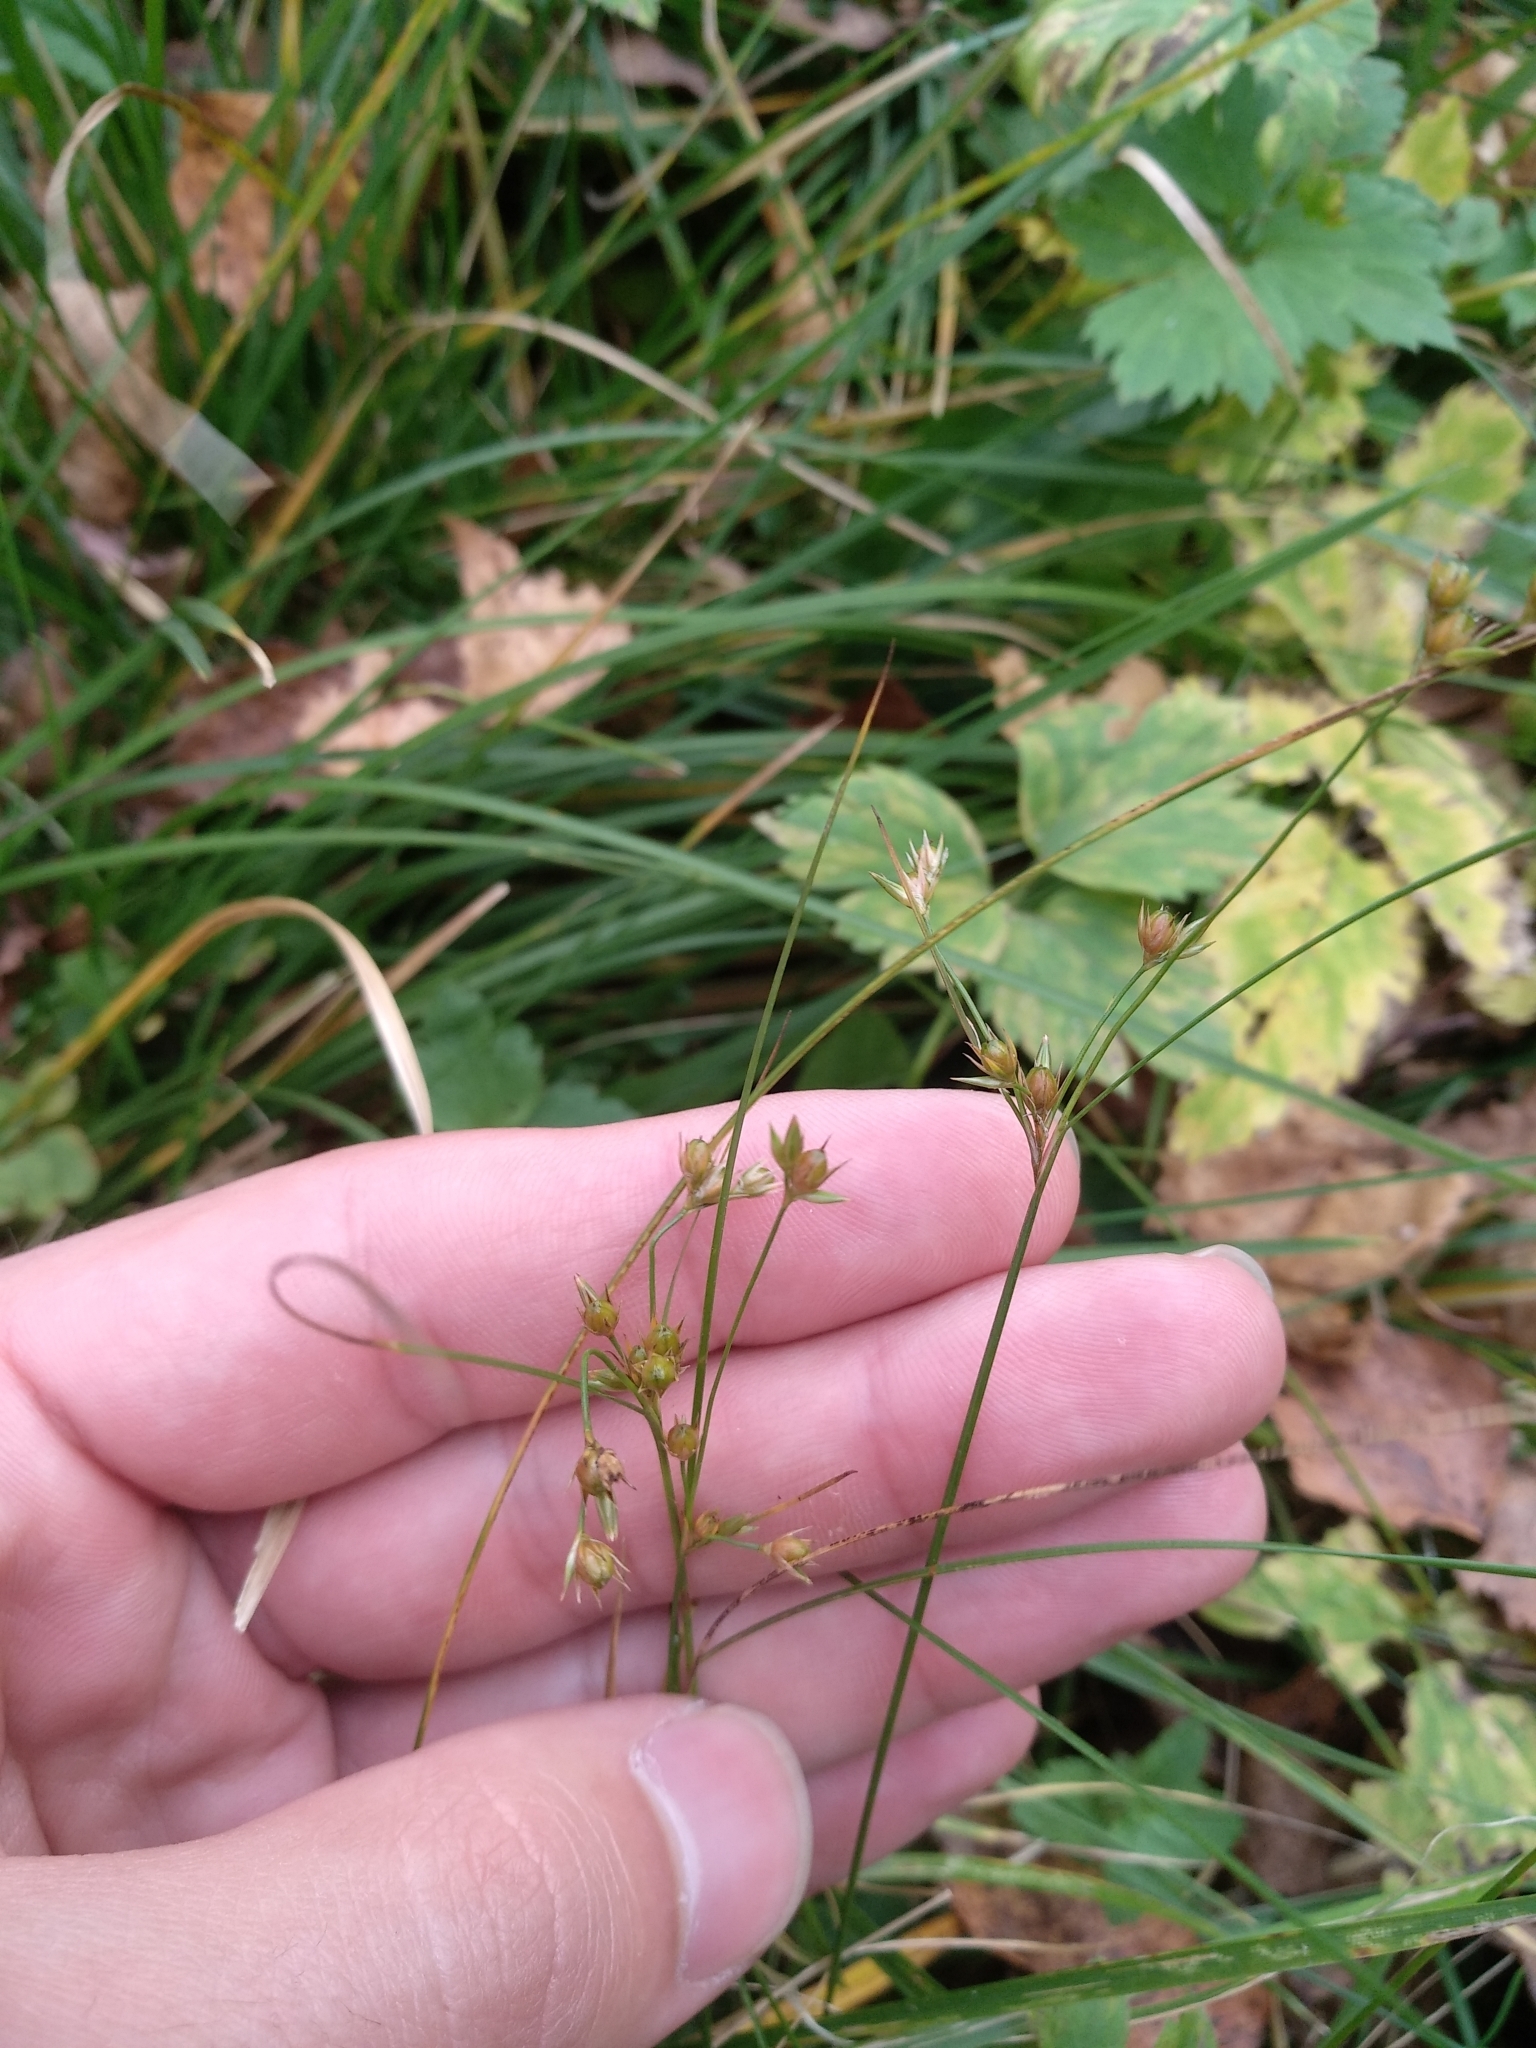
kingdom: Plantae
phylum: Tracheophyta
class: Liliopsida
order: Poales
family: Juncaceae
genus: Juncus
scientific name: Juncus tenuis
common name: Slender rush
